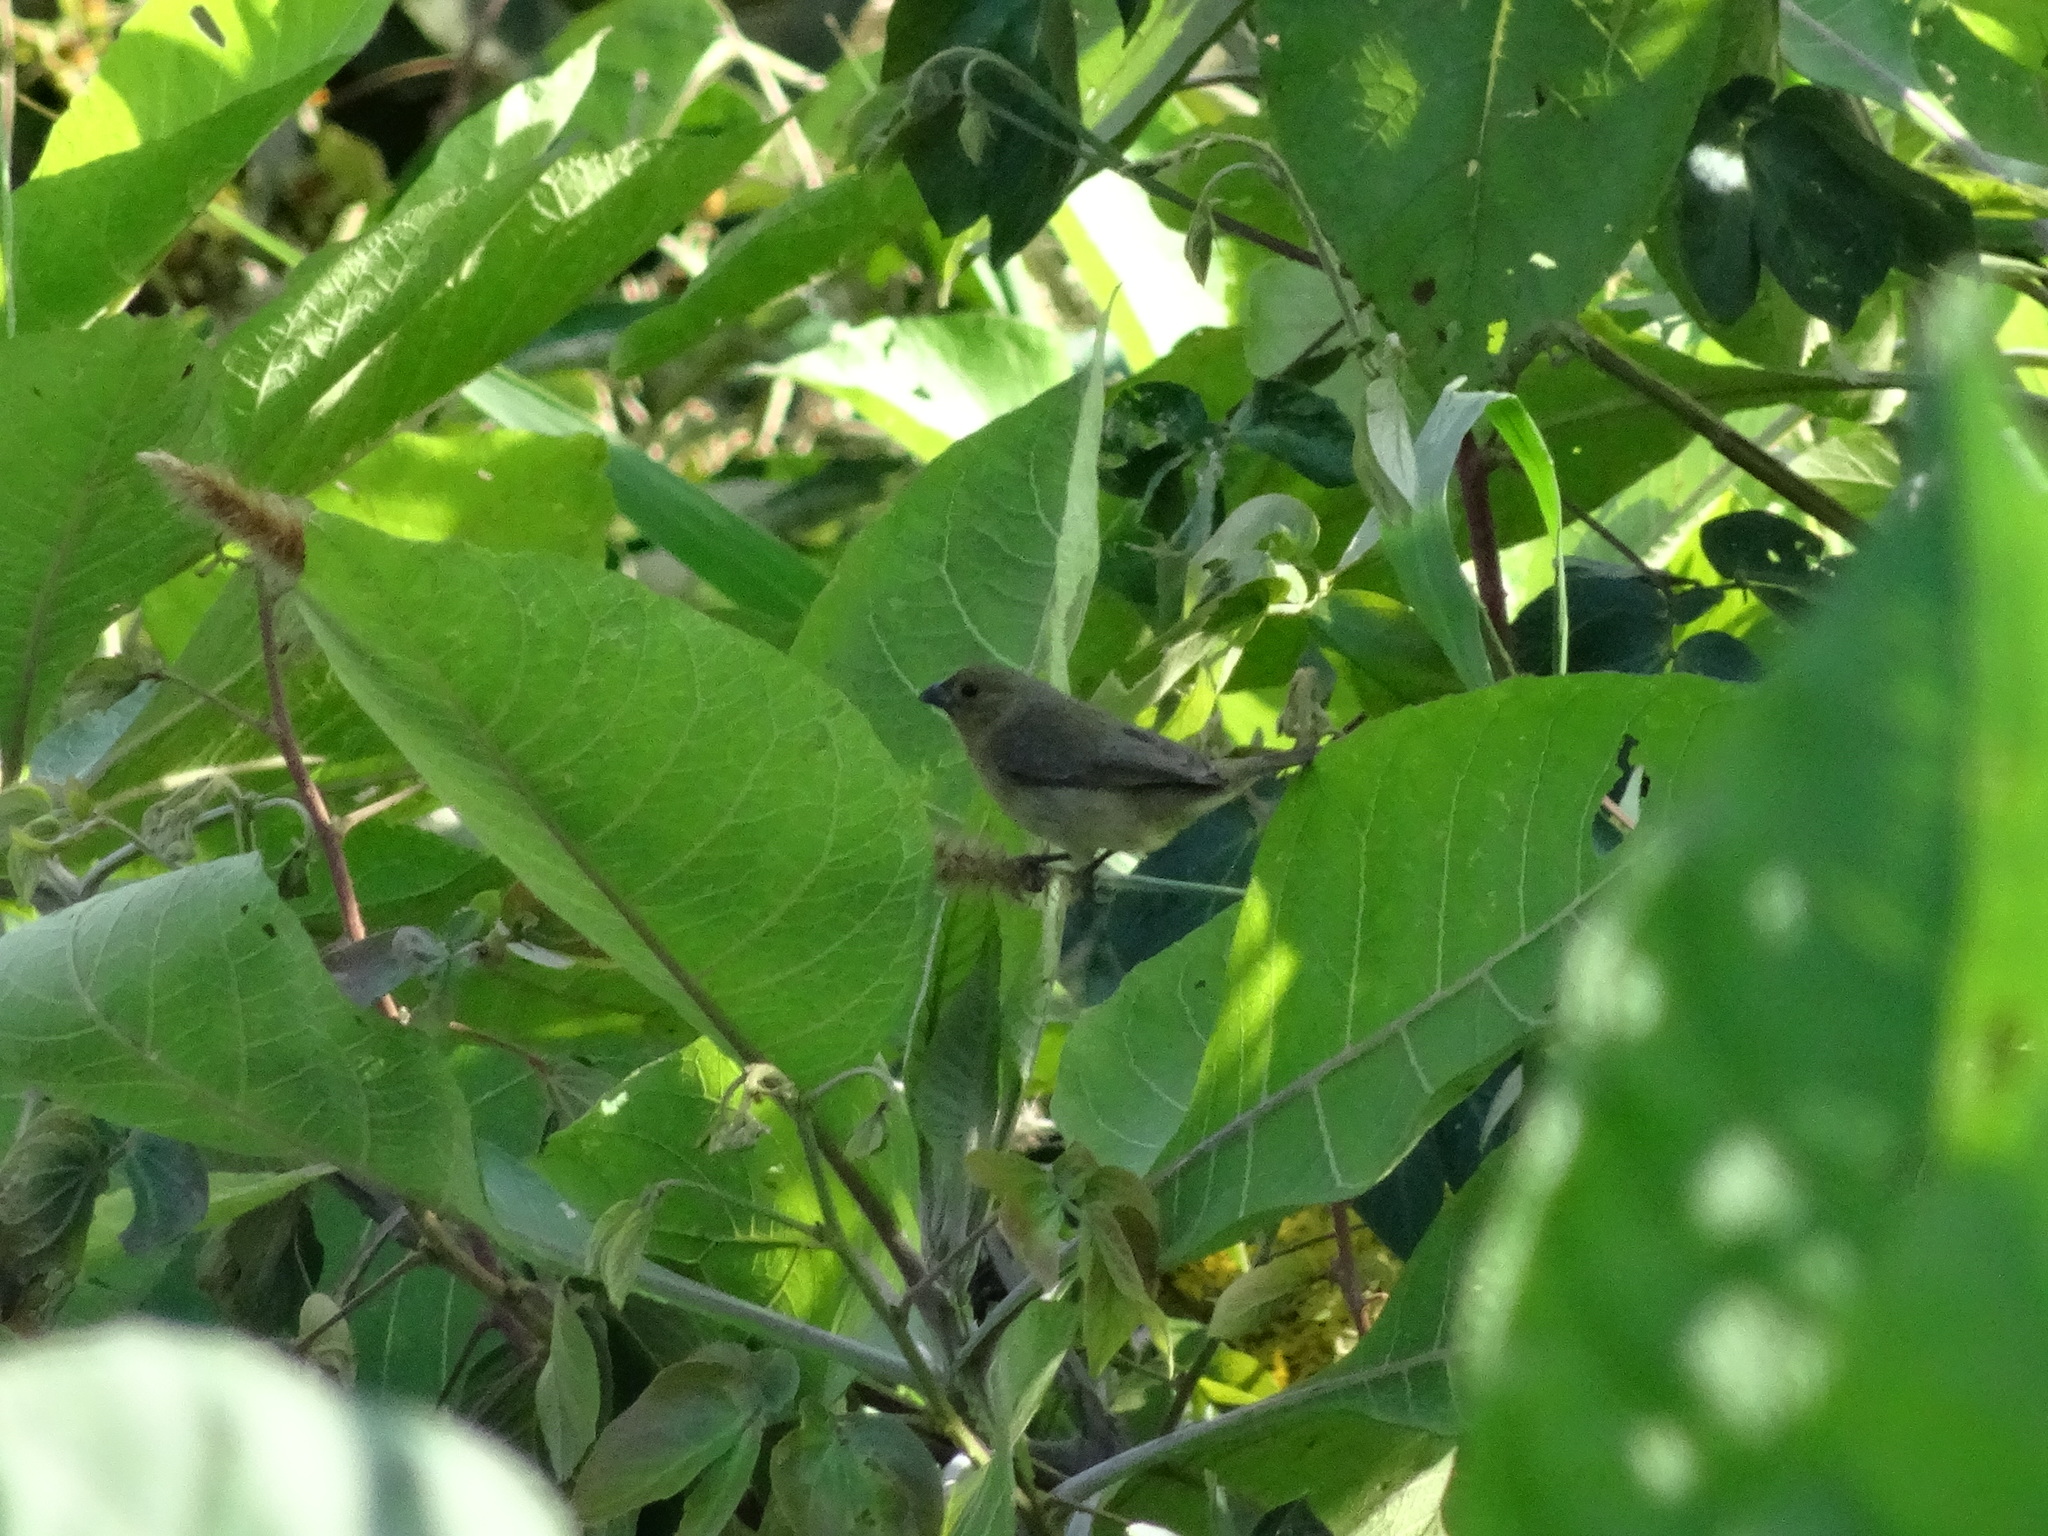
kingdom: Animalia
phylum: Chordata
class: Aves
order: Passeriformes
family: Thraupidae
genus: Sporophila
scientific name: Sporophila nigricollis
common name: Yellow-bellied seedeater
